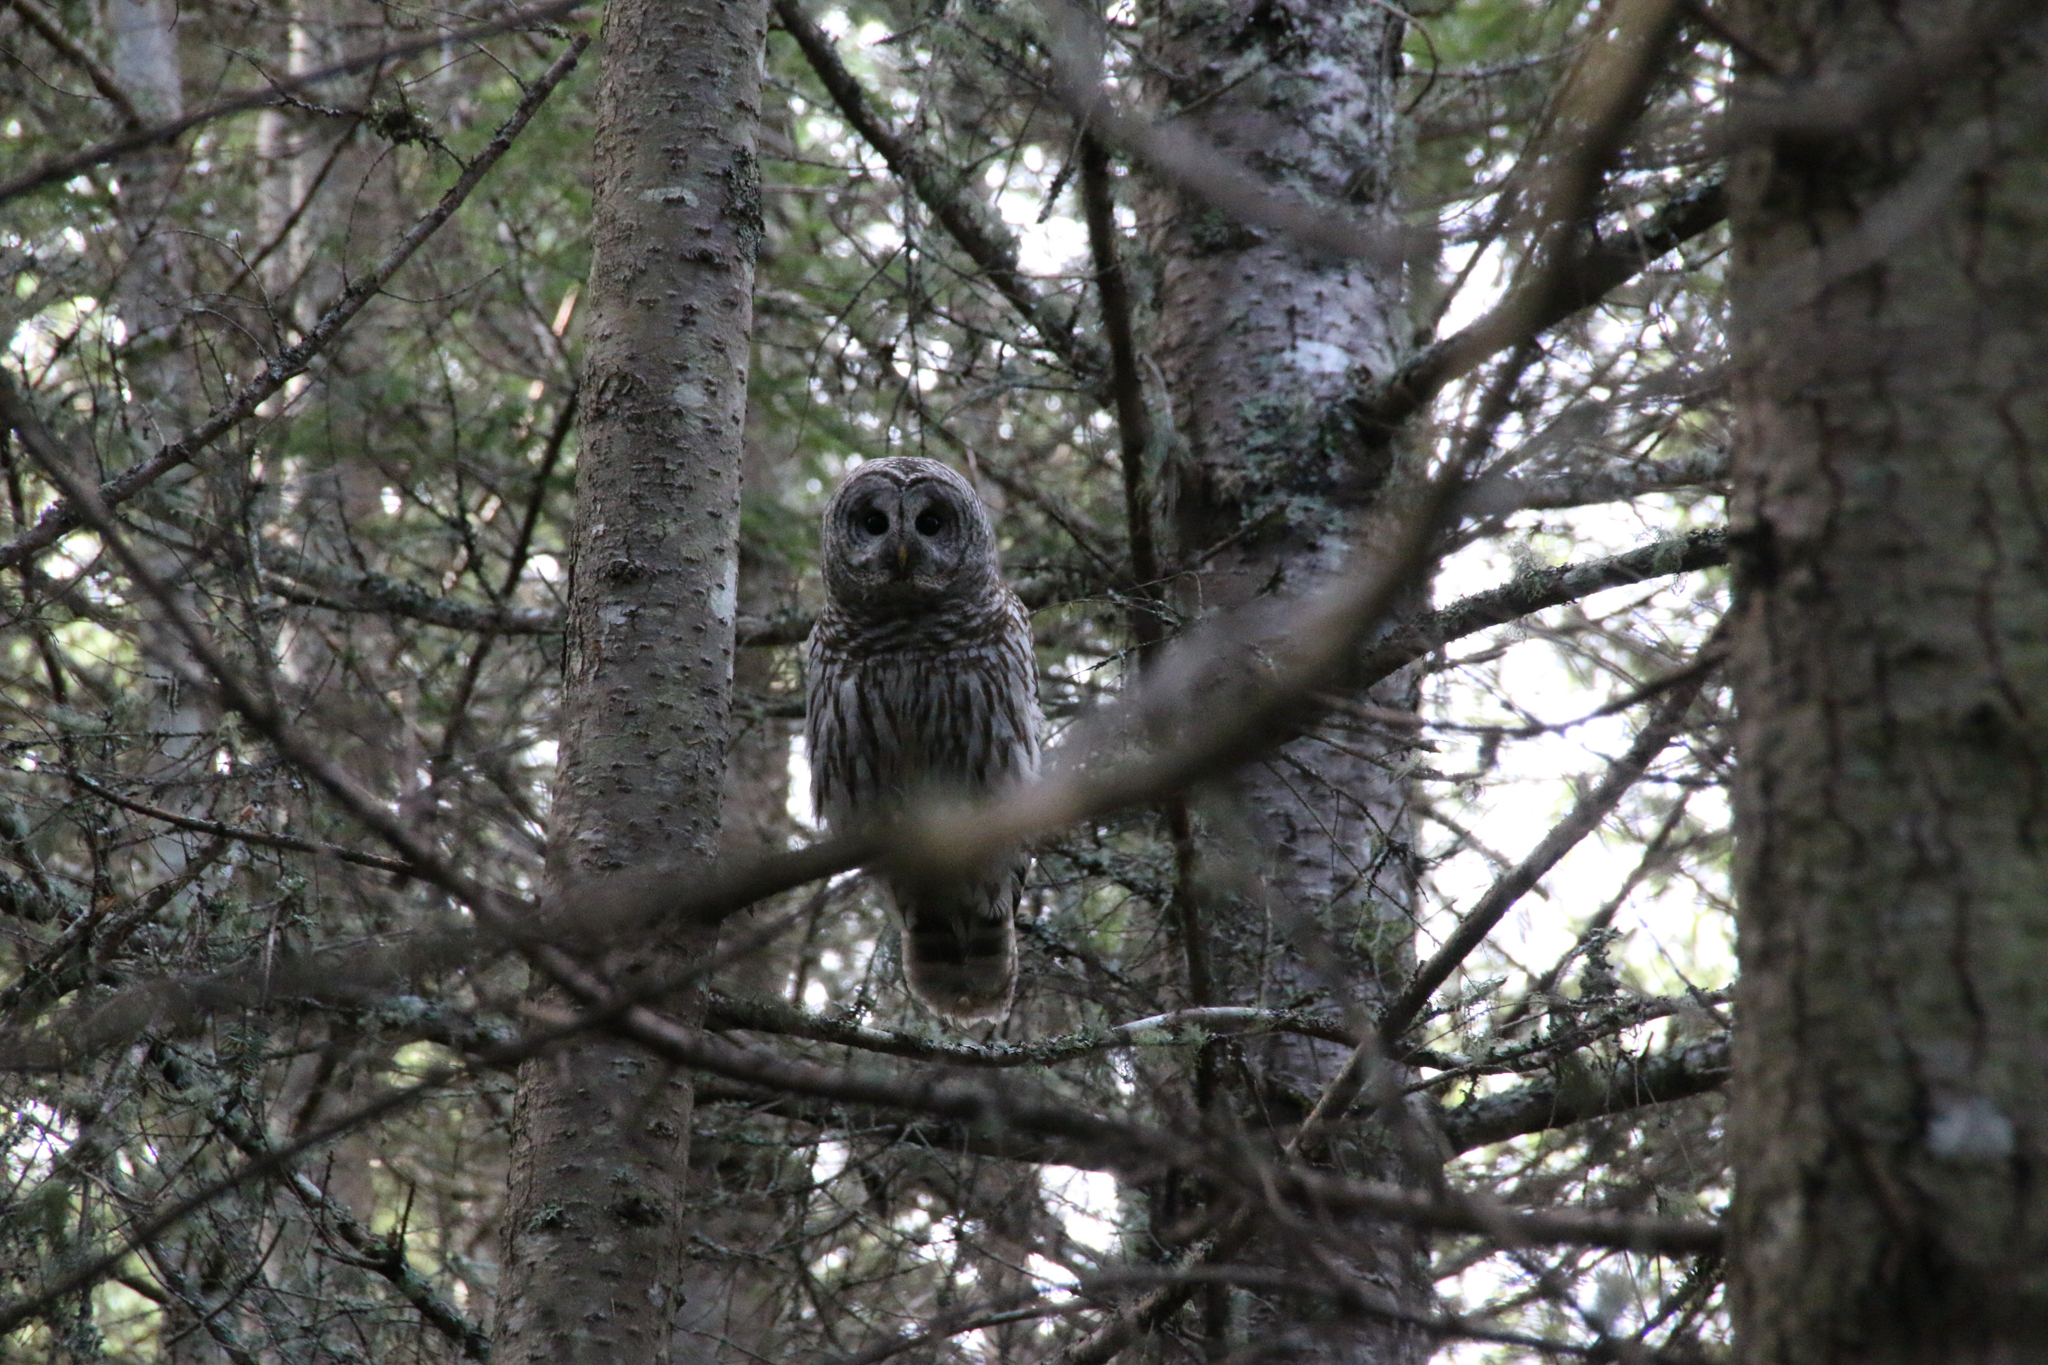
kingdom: Animalia
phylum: Chordata
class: Aves
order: Strigiformes
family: Strigidae
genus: Strix
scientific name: Strix varia
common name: Barred owl
